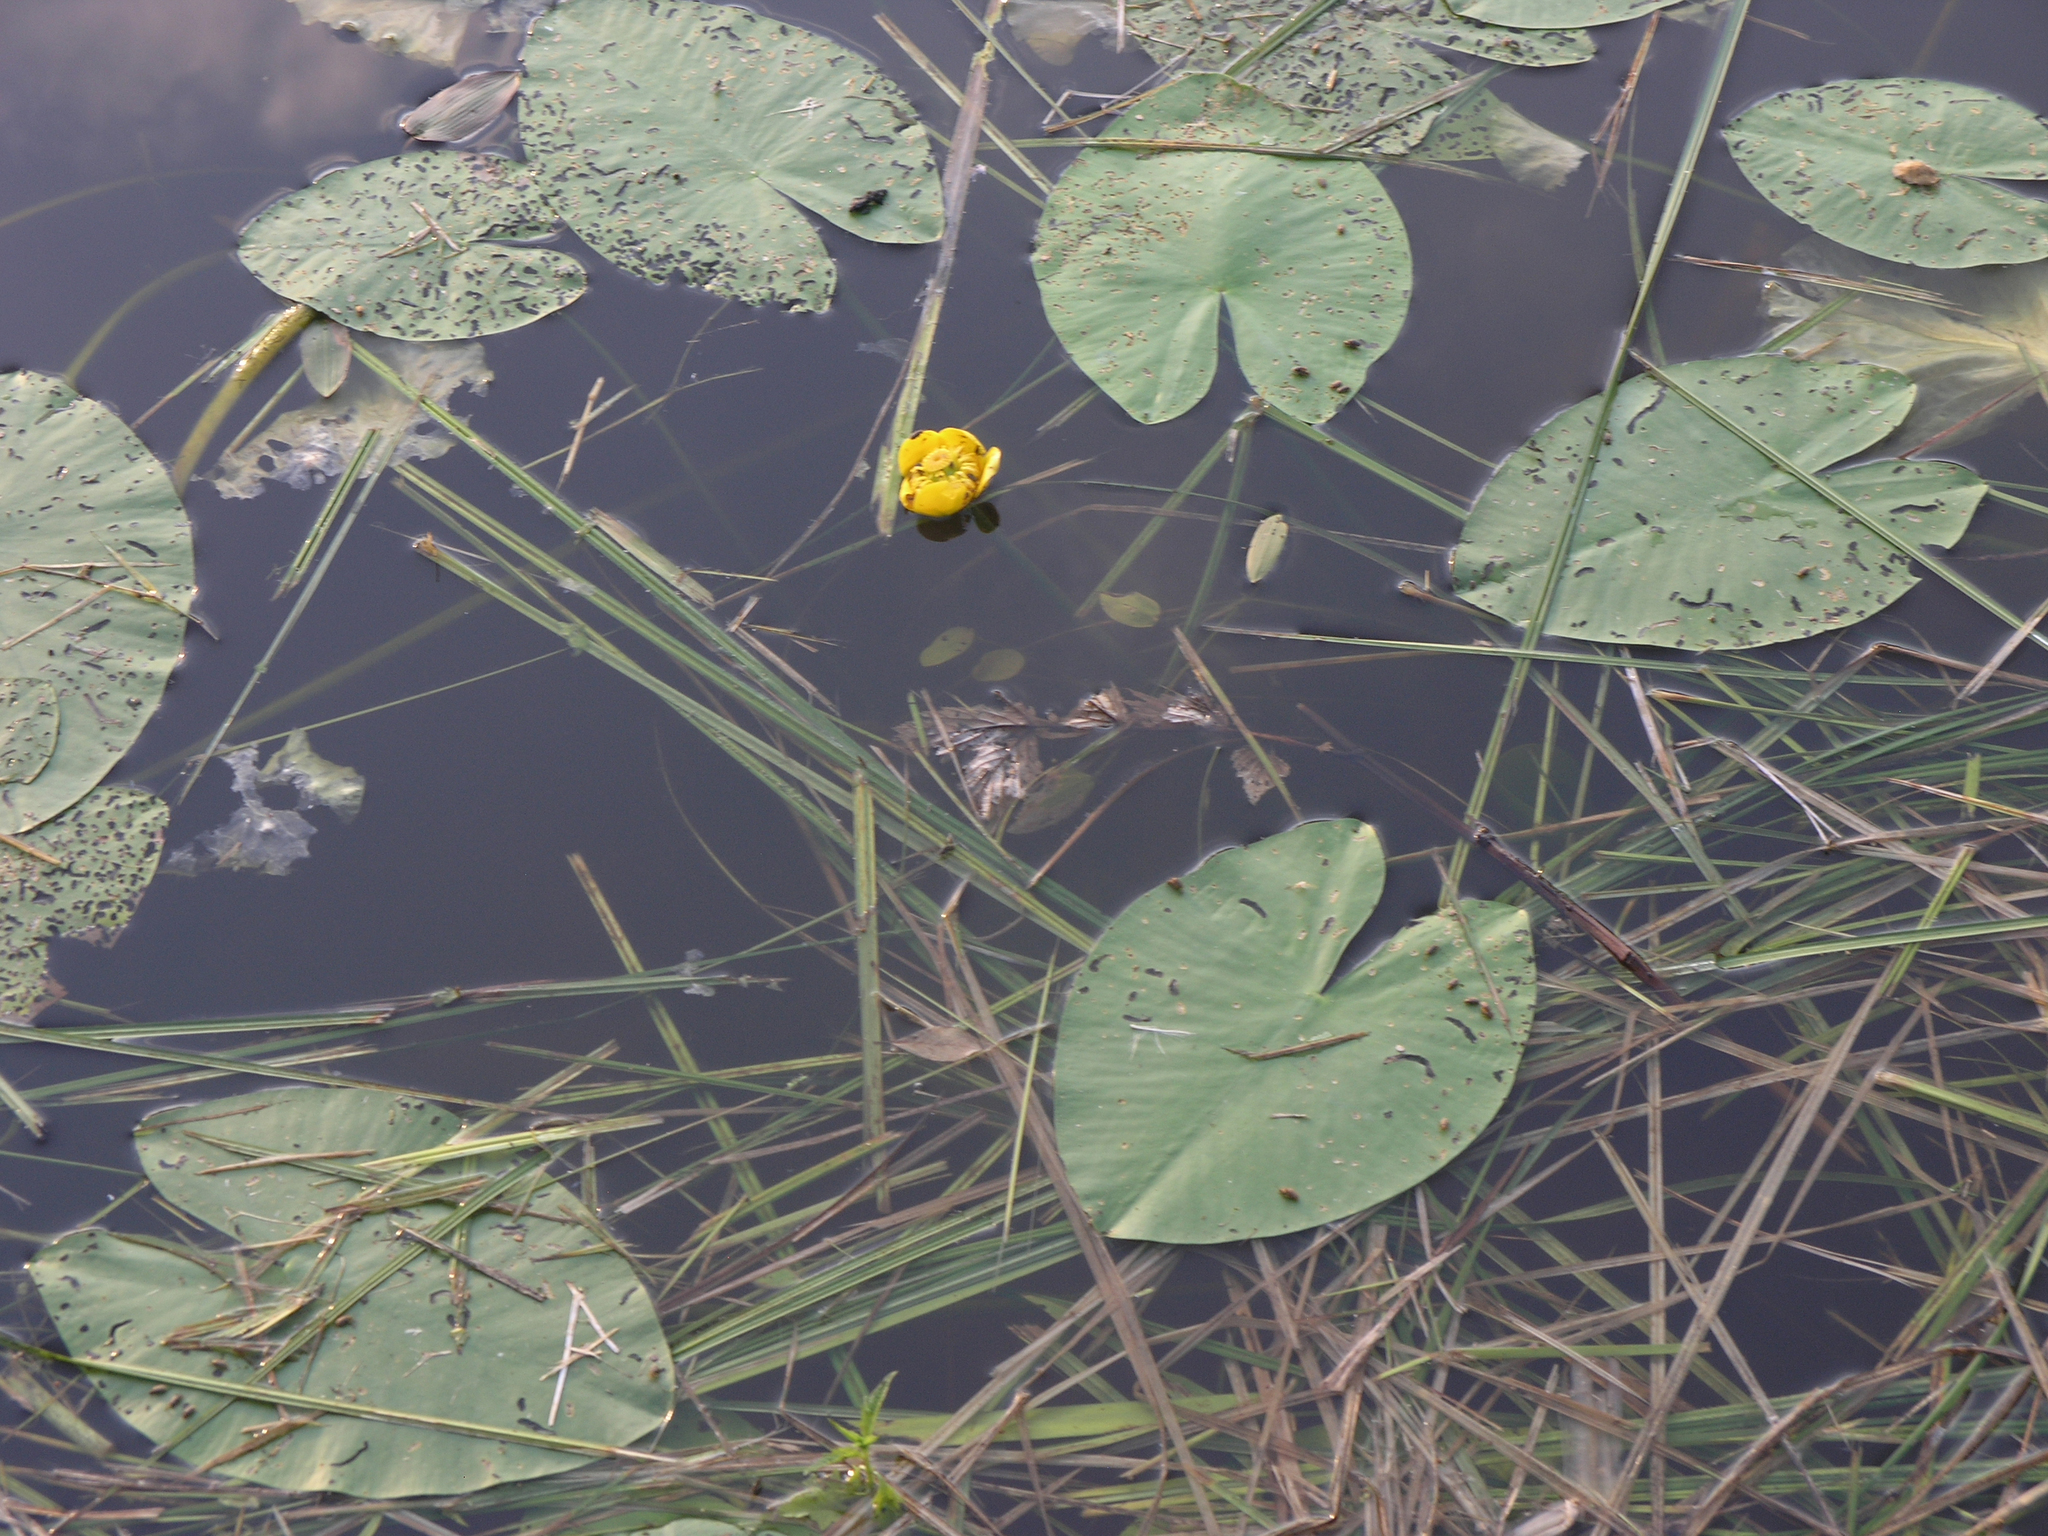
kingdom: Plantae
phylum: Tracheophyta
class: Magnoliopsida
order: Nymphaeales
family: Nymphaeaceae
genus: Nuphar
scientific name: Nuphar lutea
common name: Yellow water-lily
